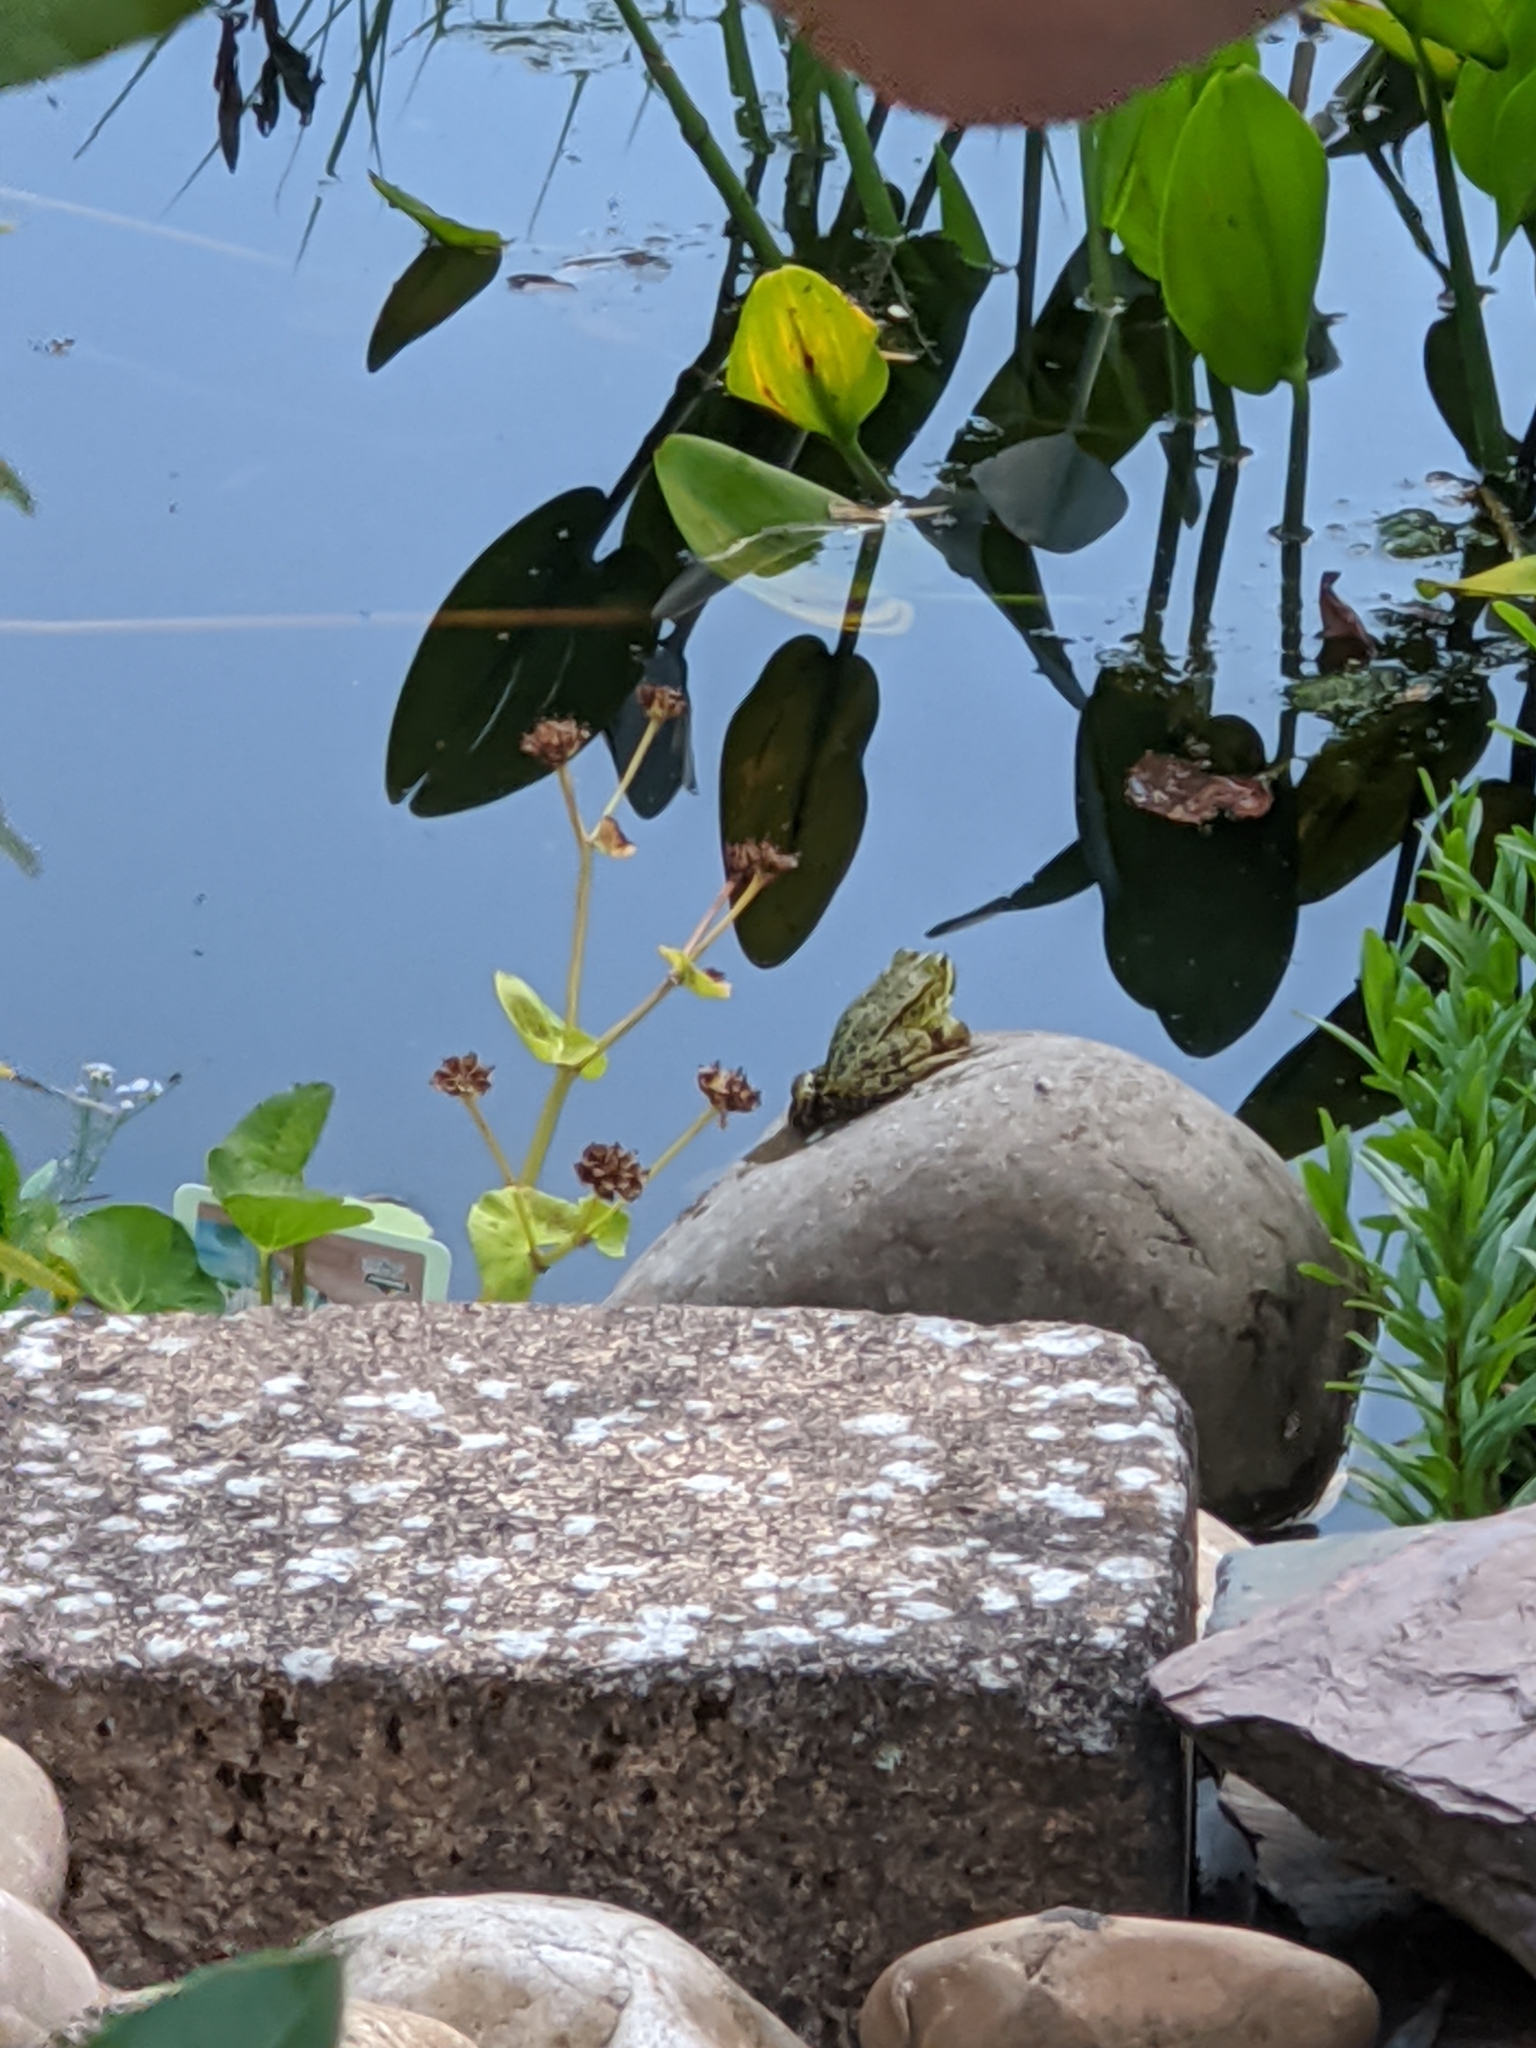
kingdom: Animalia
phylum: Chordata
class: Amphibia
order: Anura
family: Ranidae
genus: Pelophylax
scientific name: Pelophylax lessonae
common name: Pool frog
